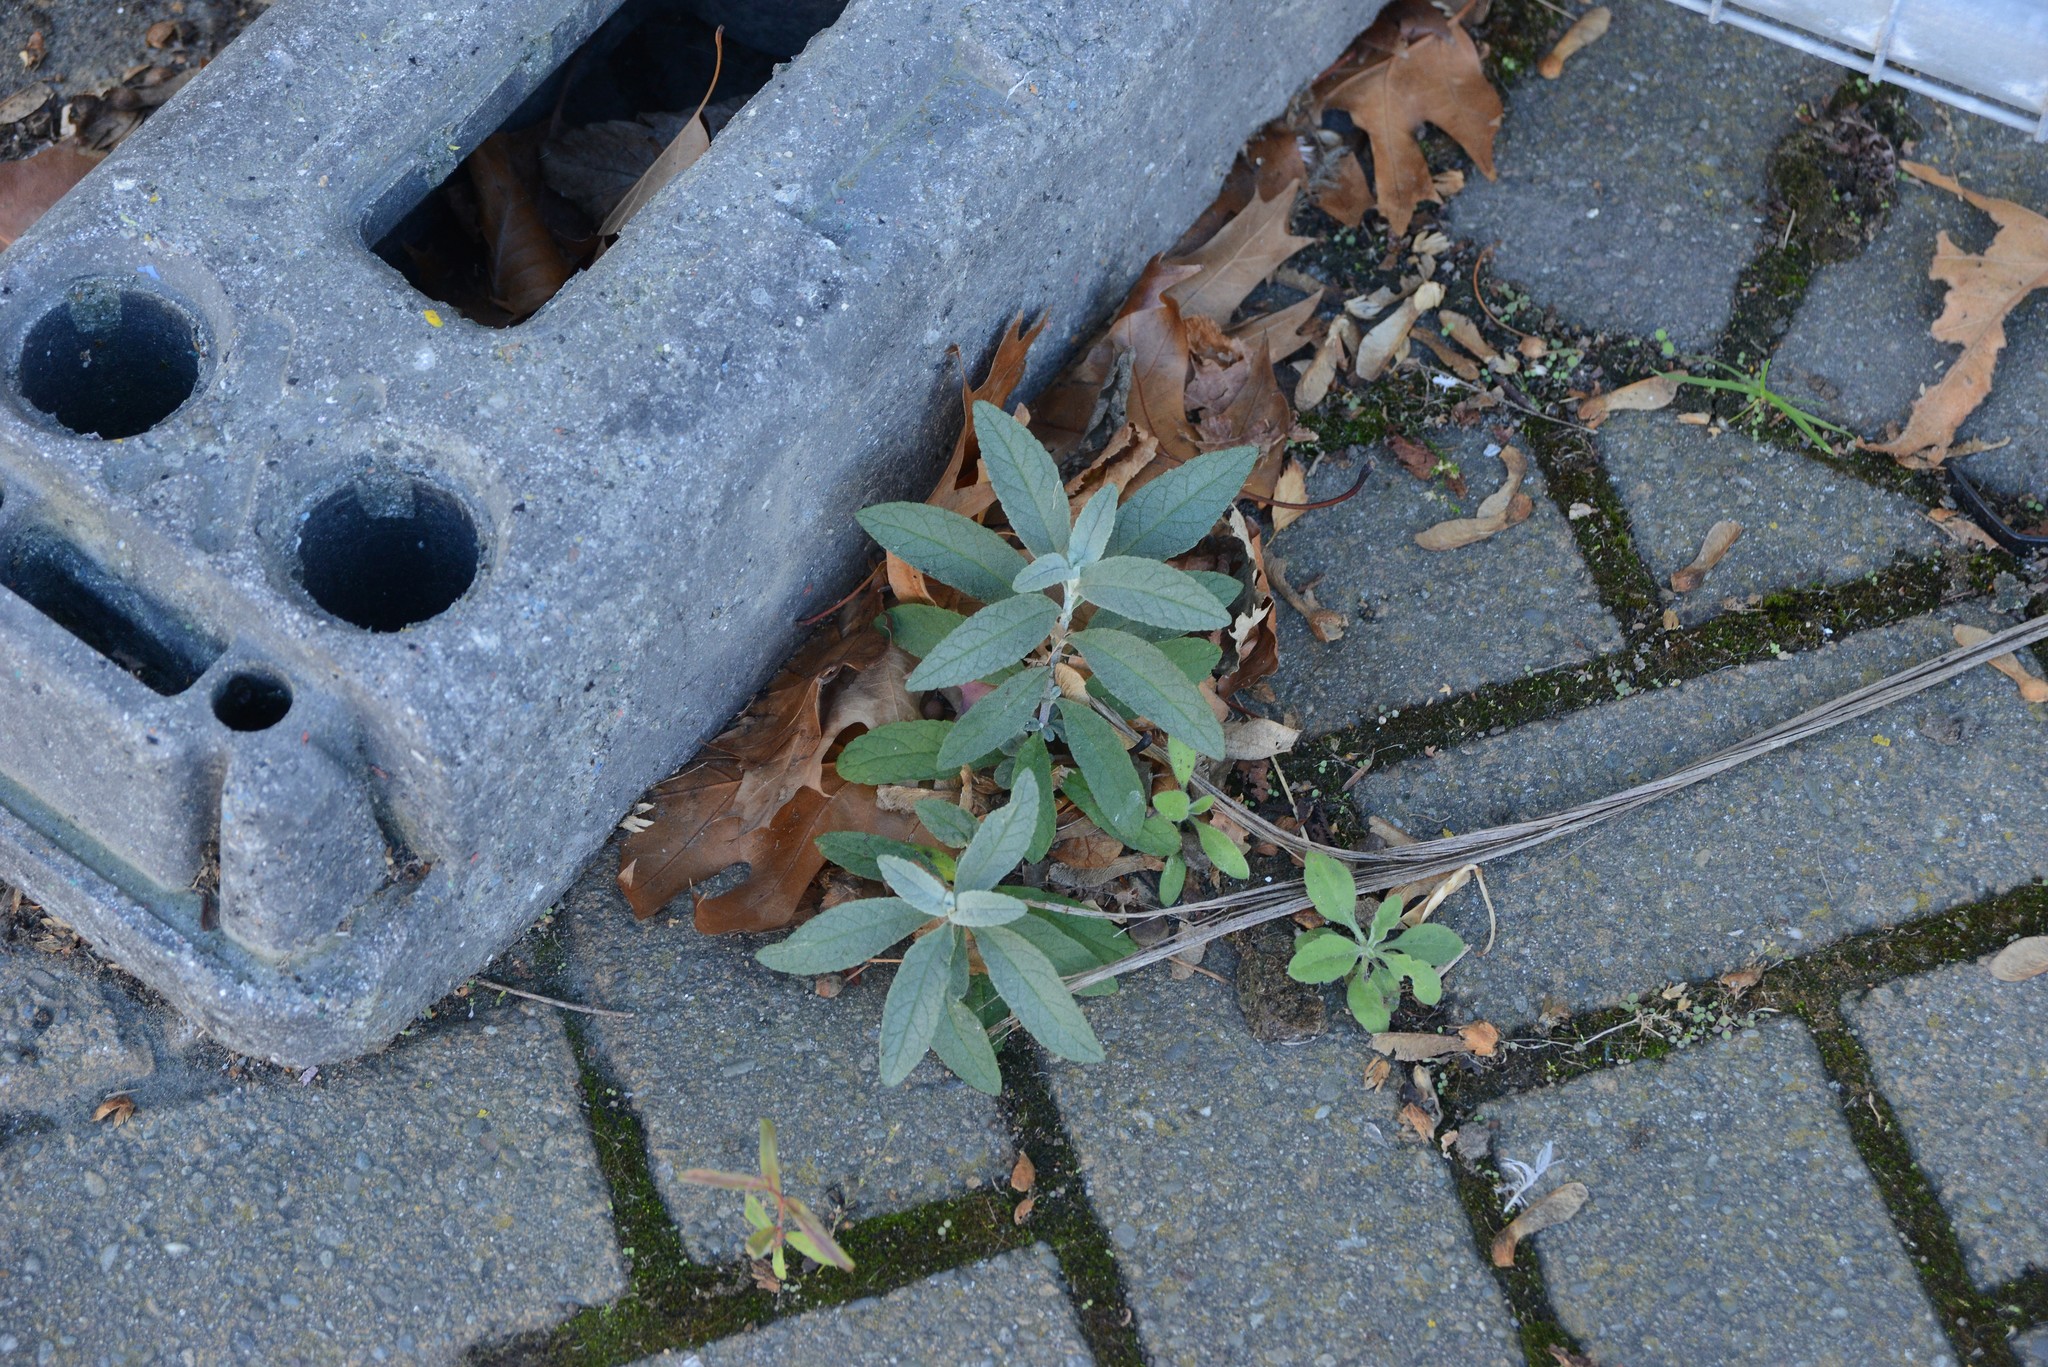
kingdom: Plantae
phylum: Tracheophyta
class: Magnoliopsida
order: Lamiales
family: Scrophulariaceae
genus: Buddleja
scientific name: Buddleja davidii
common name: Butterfly-bush
